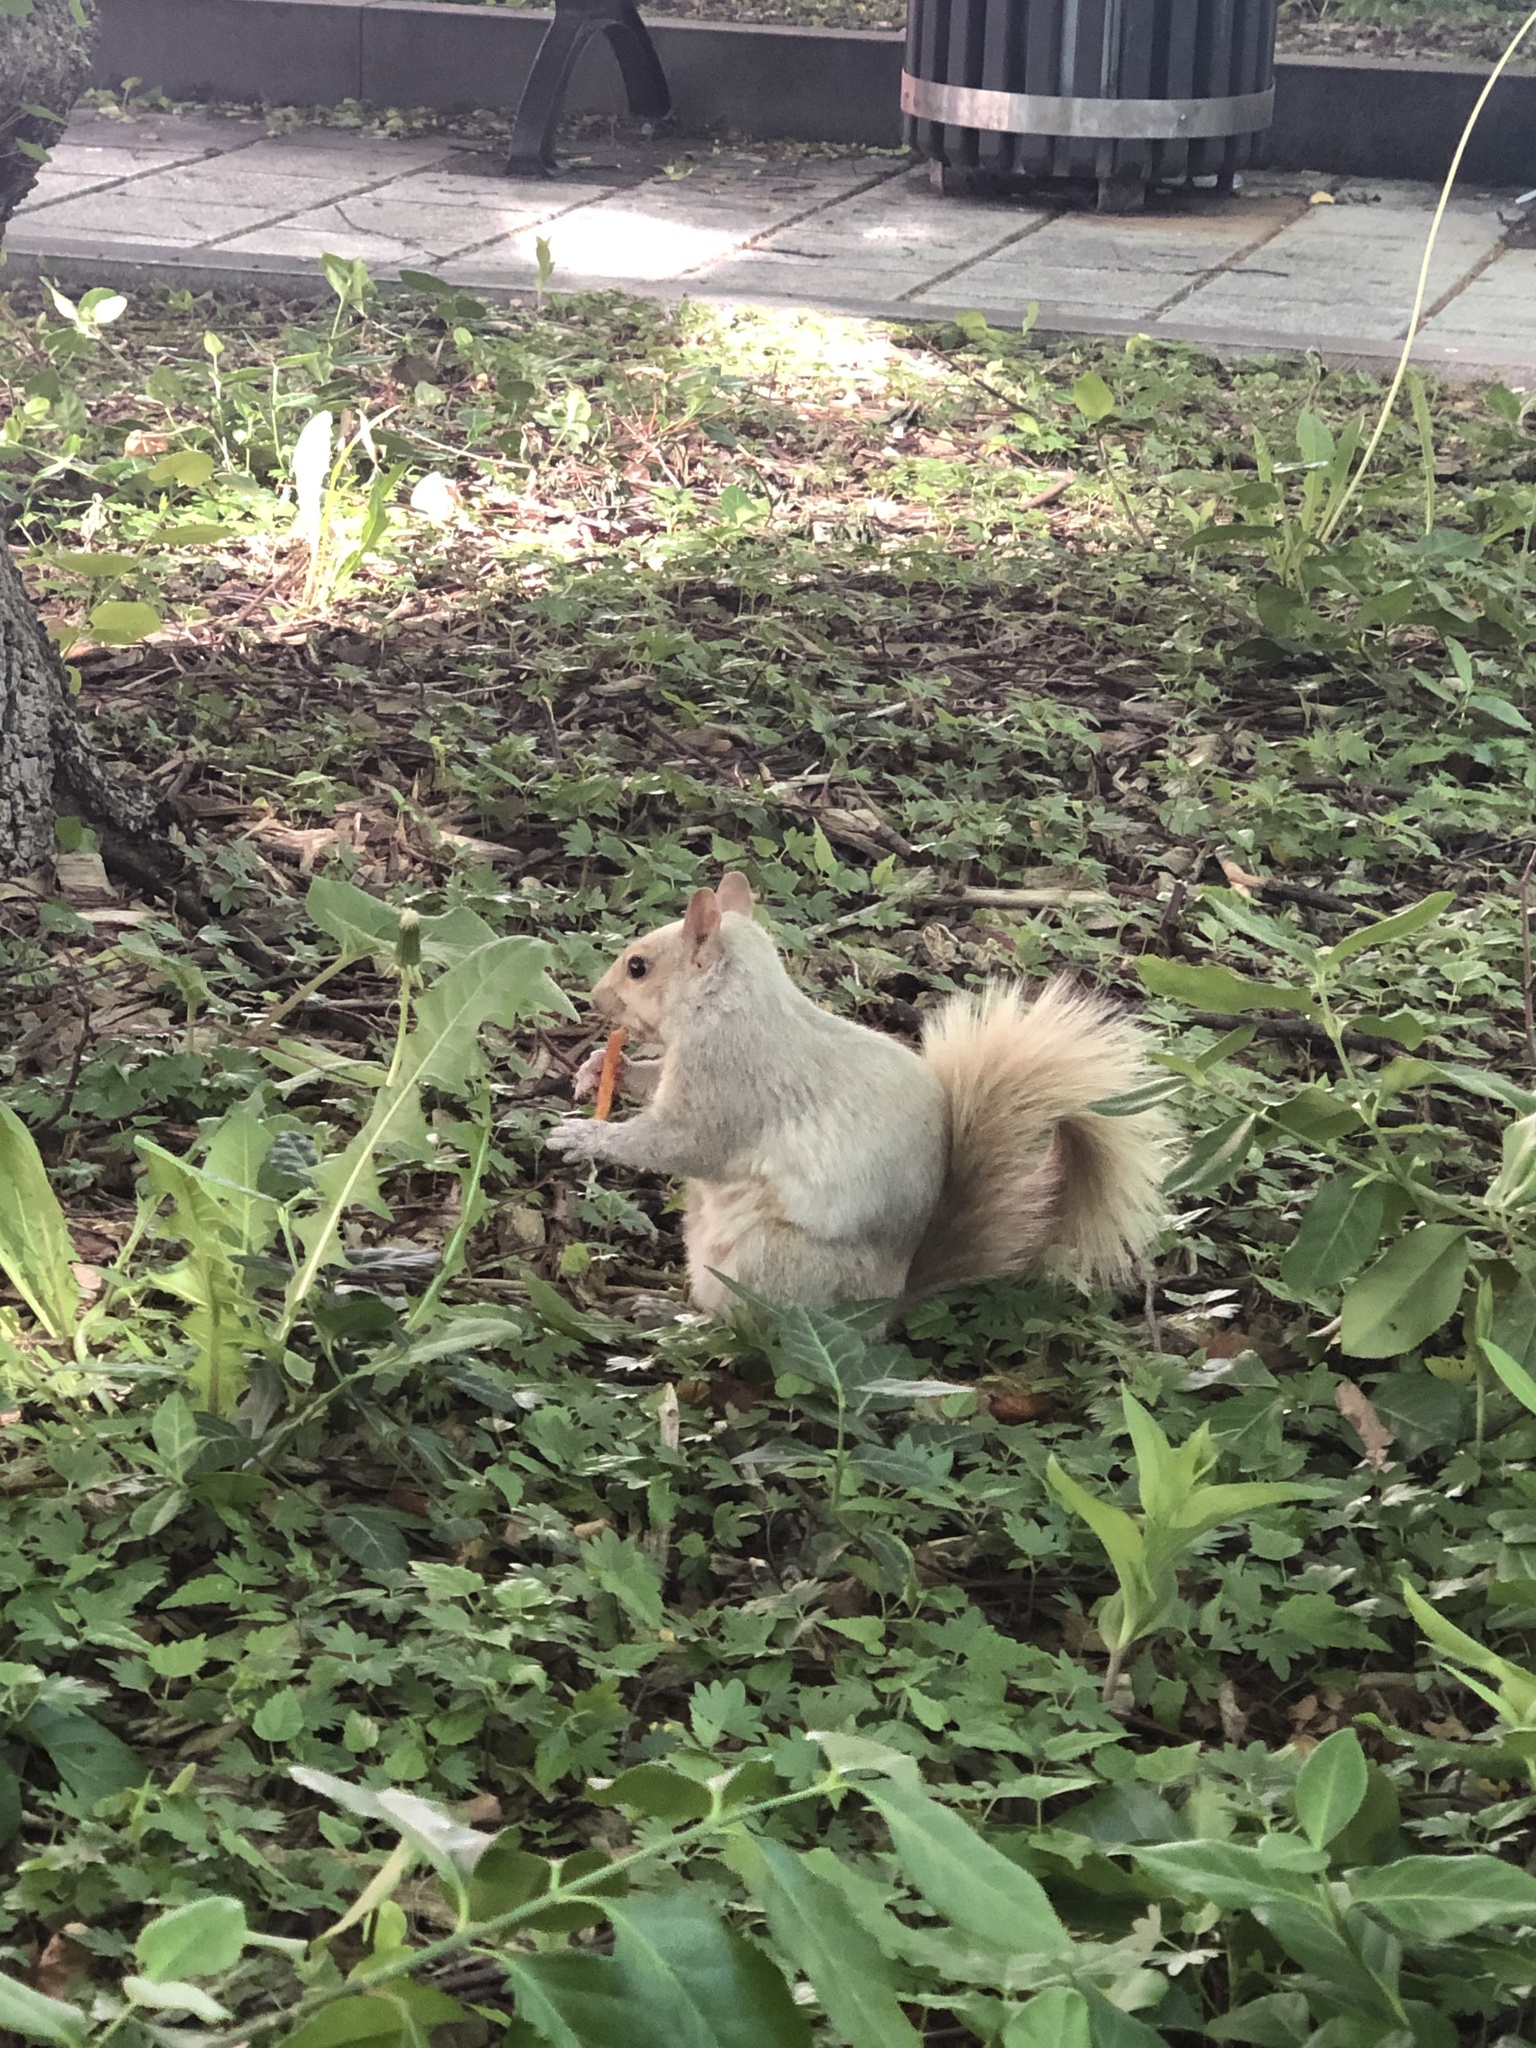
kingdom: Animalia
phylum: Chordata
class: Mammalia
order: Rodentia
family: Sciuridae
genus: Sciurus
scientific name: Sciurus carolinensis
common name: Eastern gray squirrel
